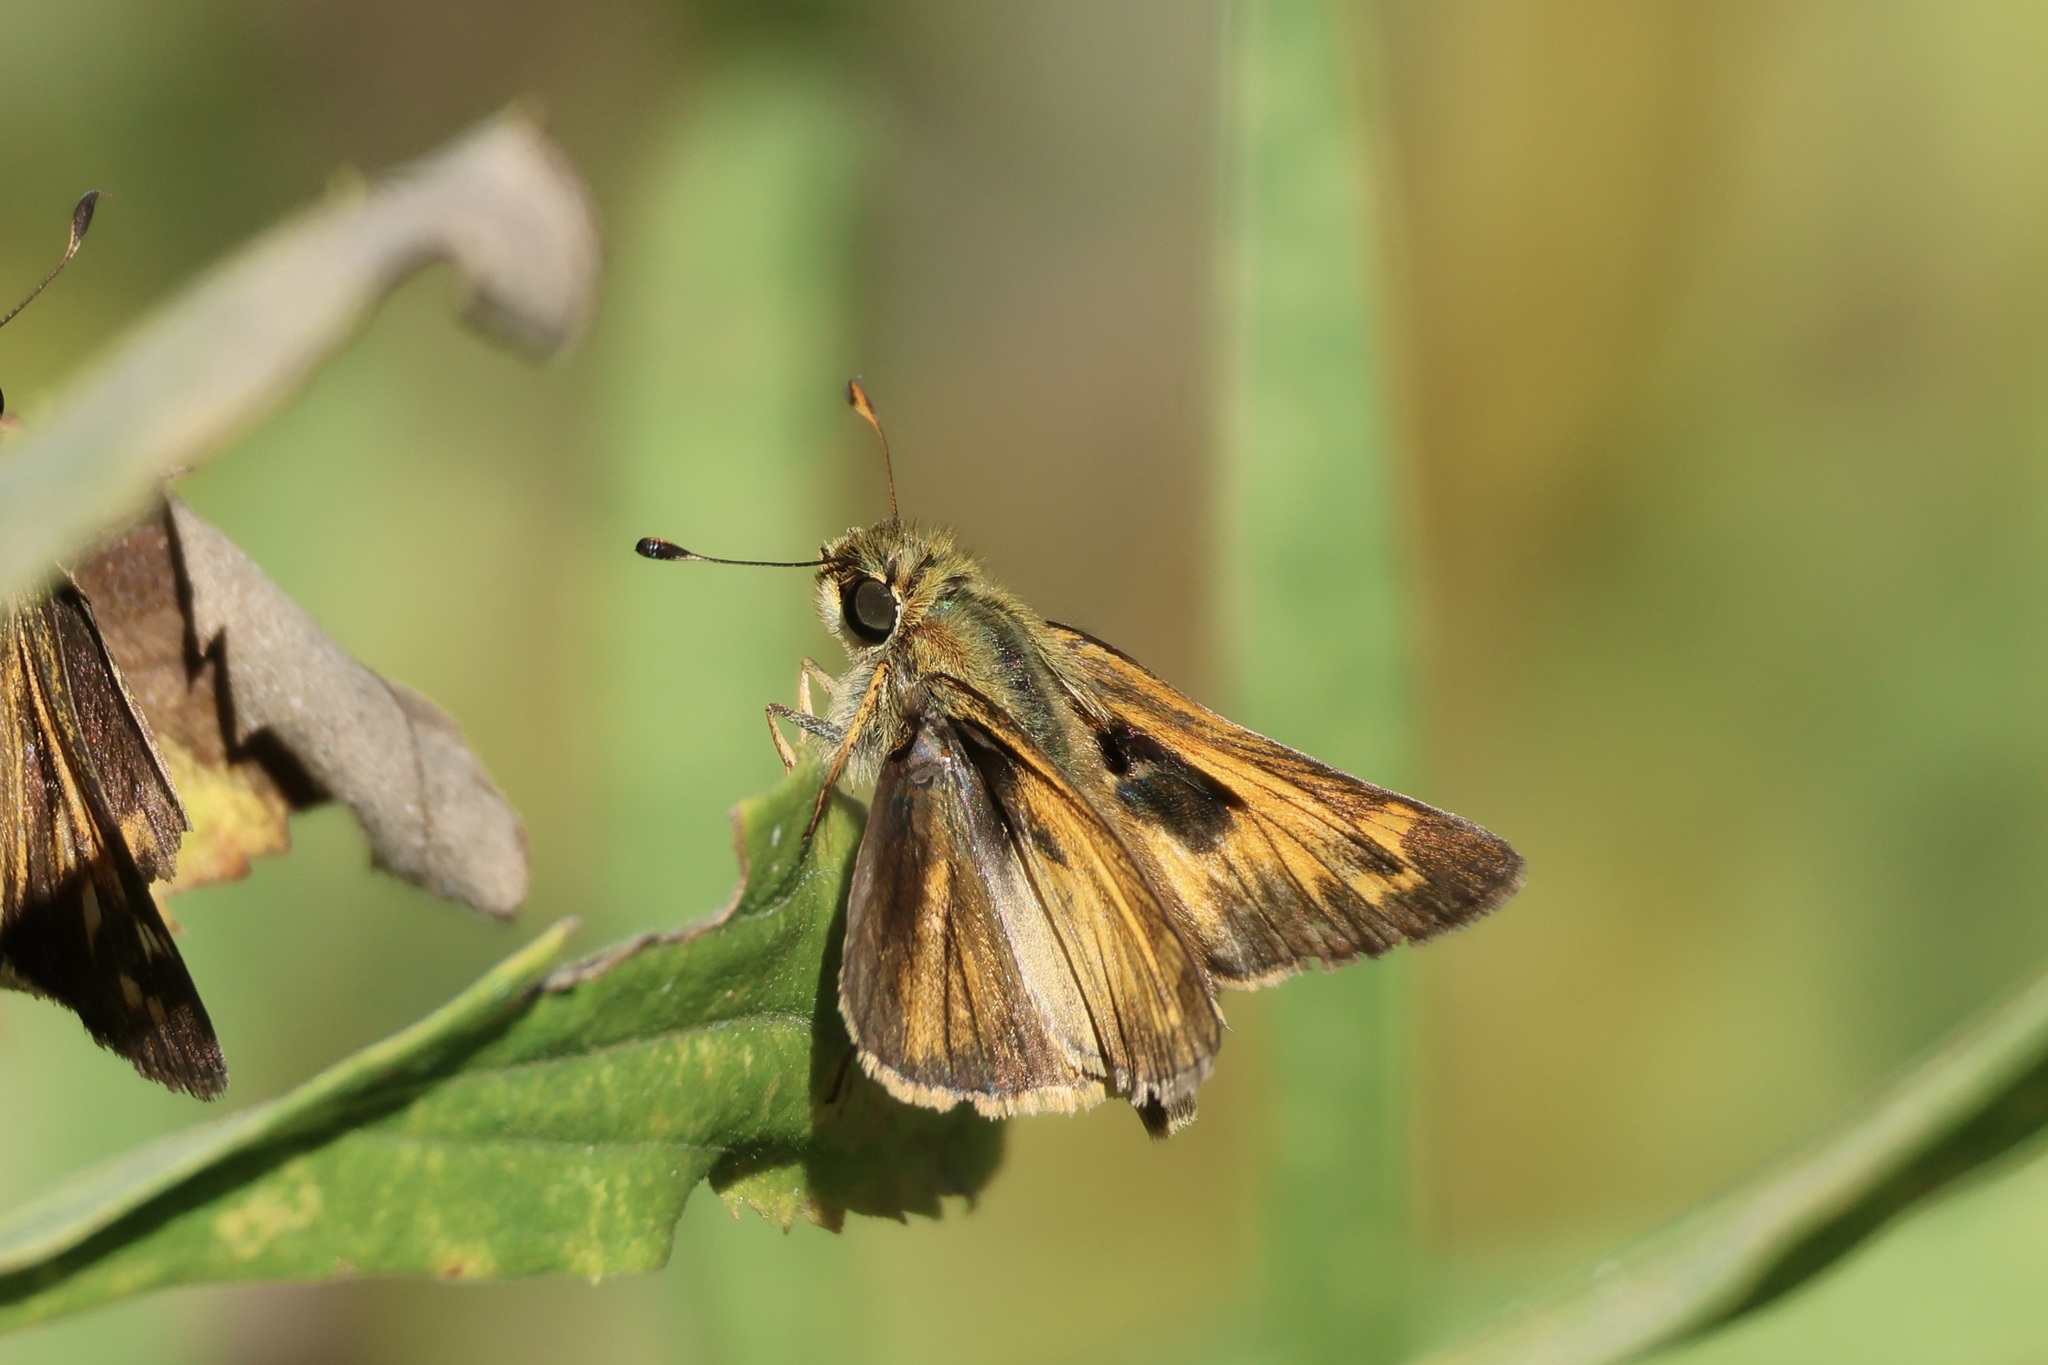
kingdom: Animalia
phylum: Arthropoda
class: Insecta
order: Lepidoptera
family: Hesperiidae
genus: Atalopedes
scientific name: Atalopedes
